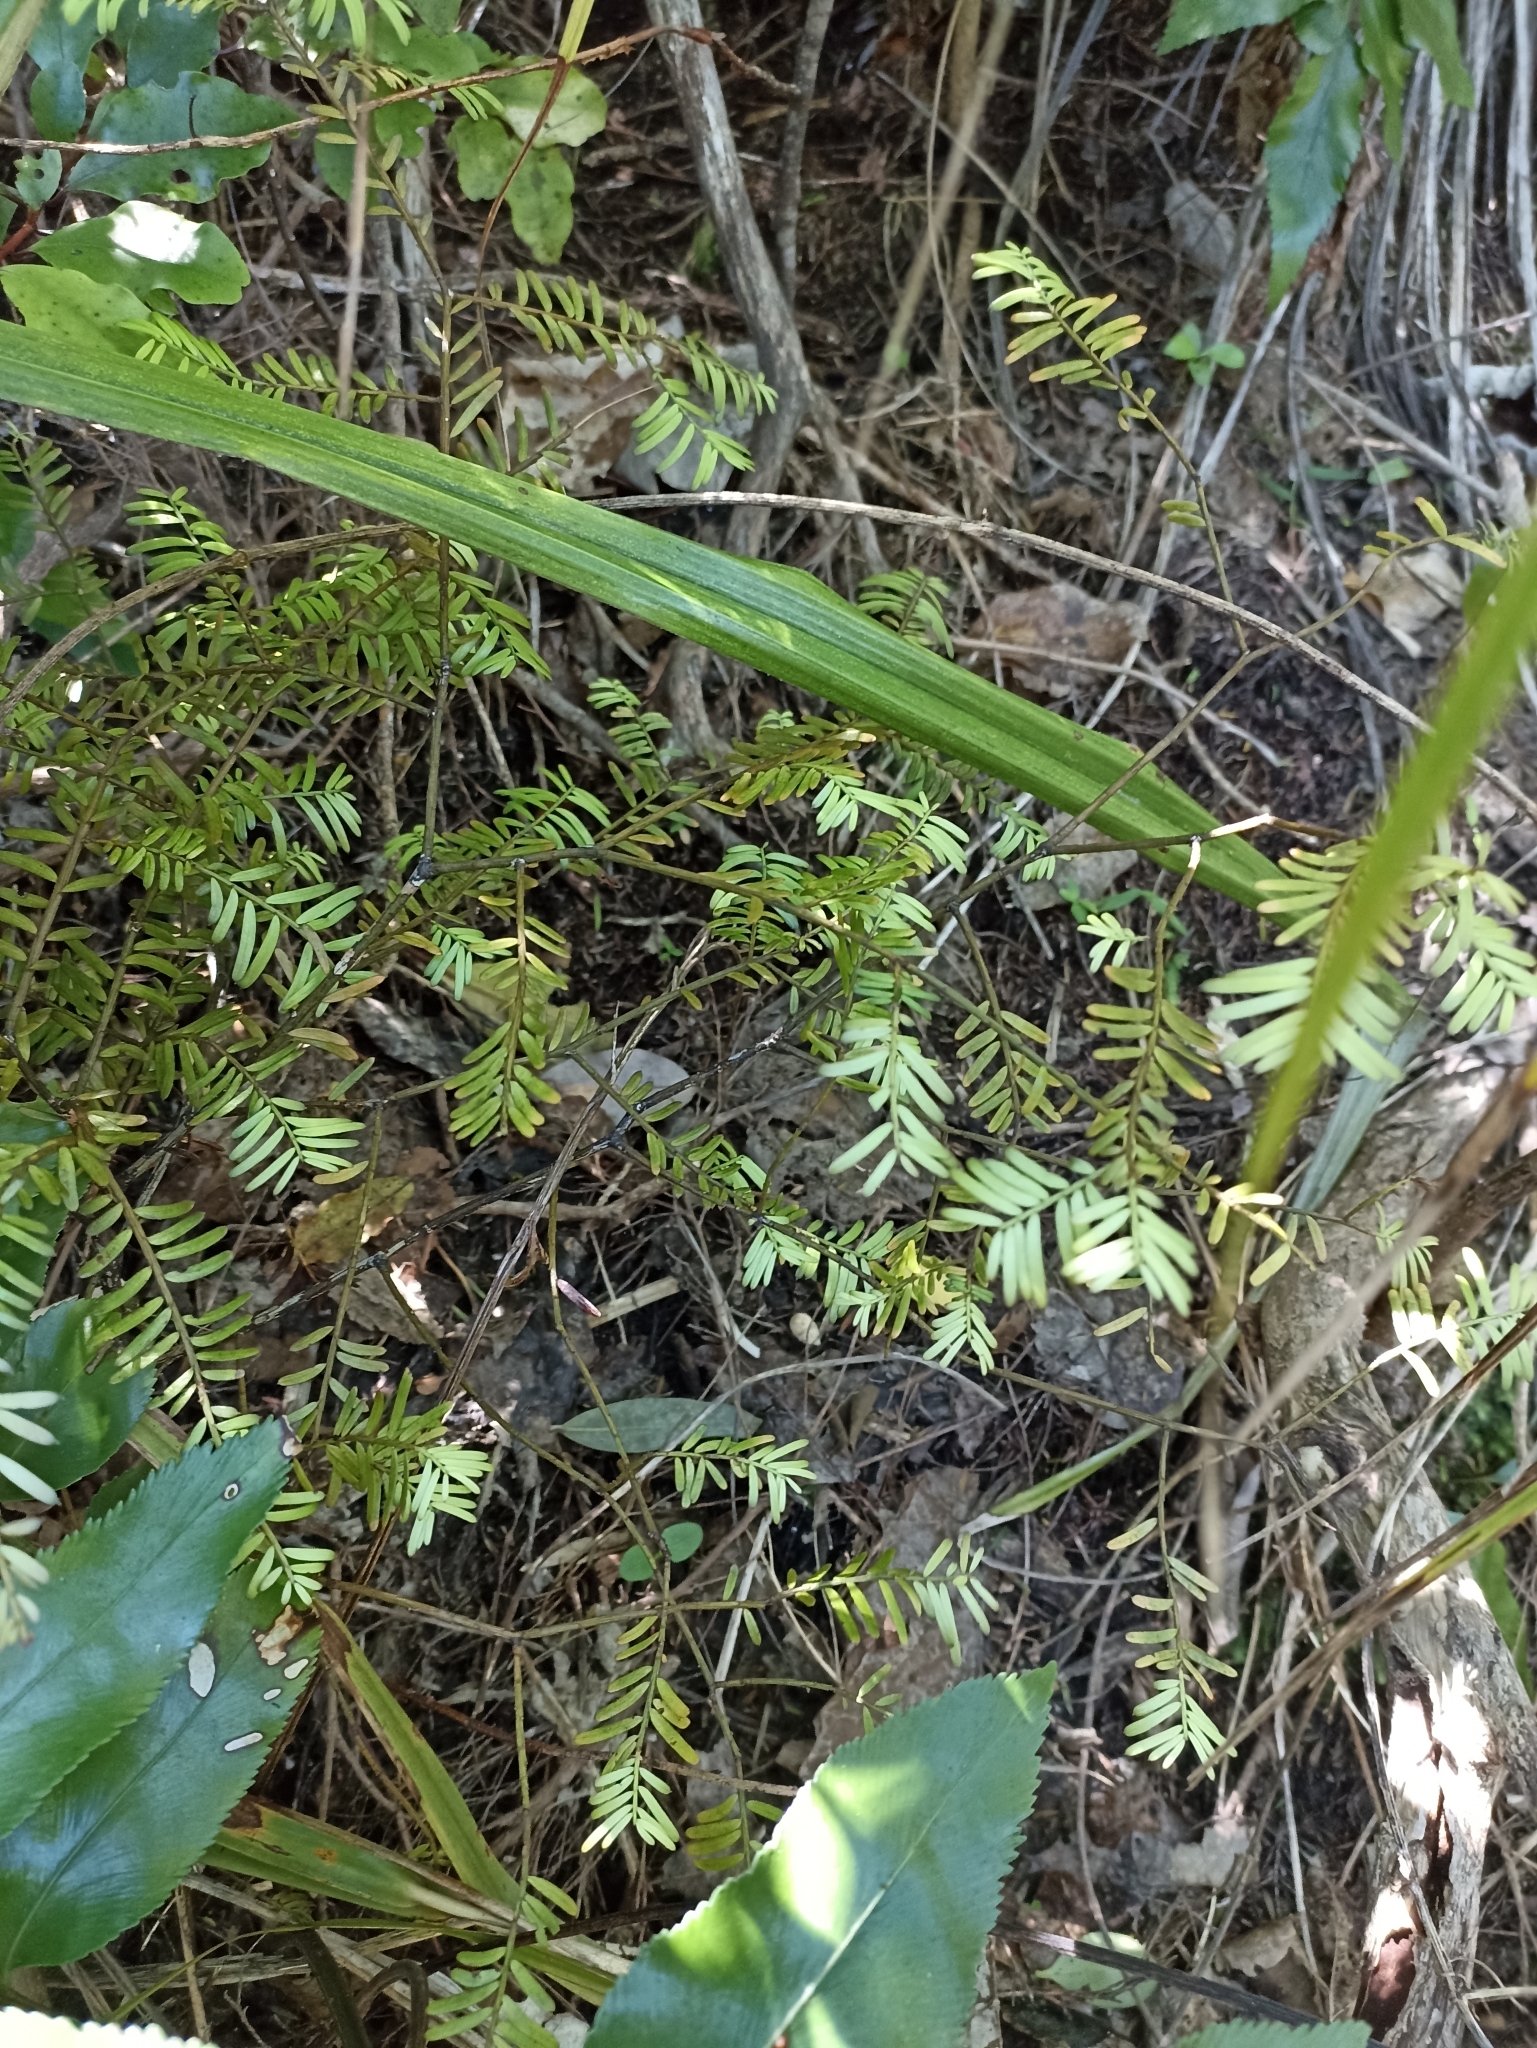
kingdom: Plantae
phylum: Tracheophyta
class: Pinopsida
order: Pinales
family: Podocarpaceae
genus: Prumnopitys
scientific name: Prumnopitys taxifolia
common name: Matai
